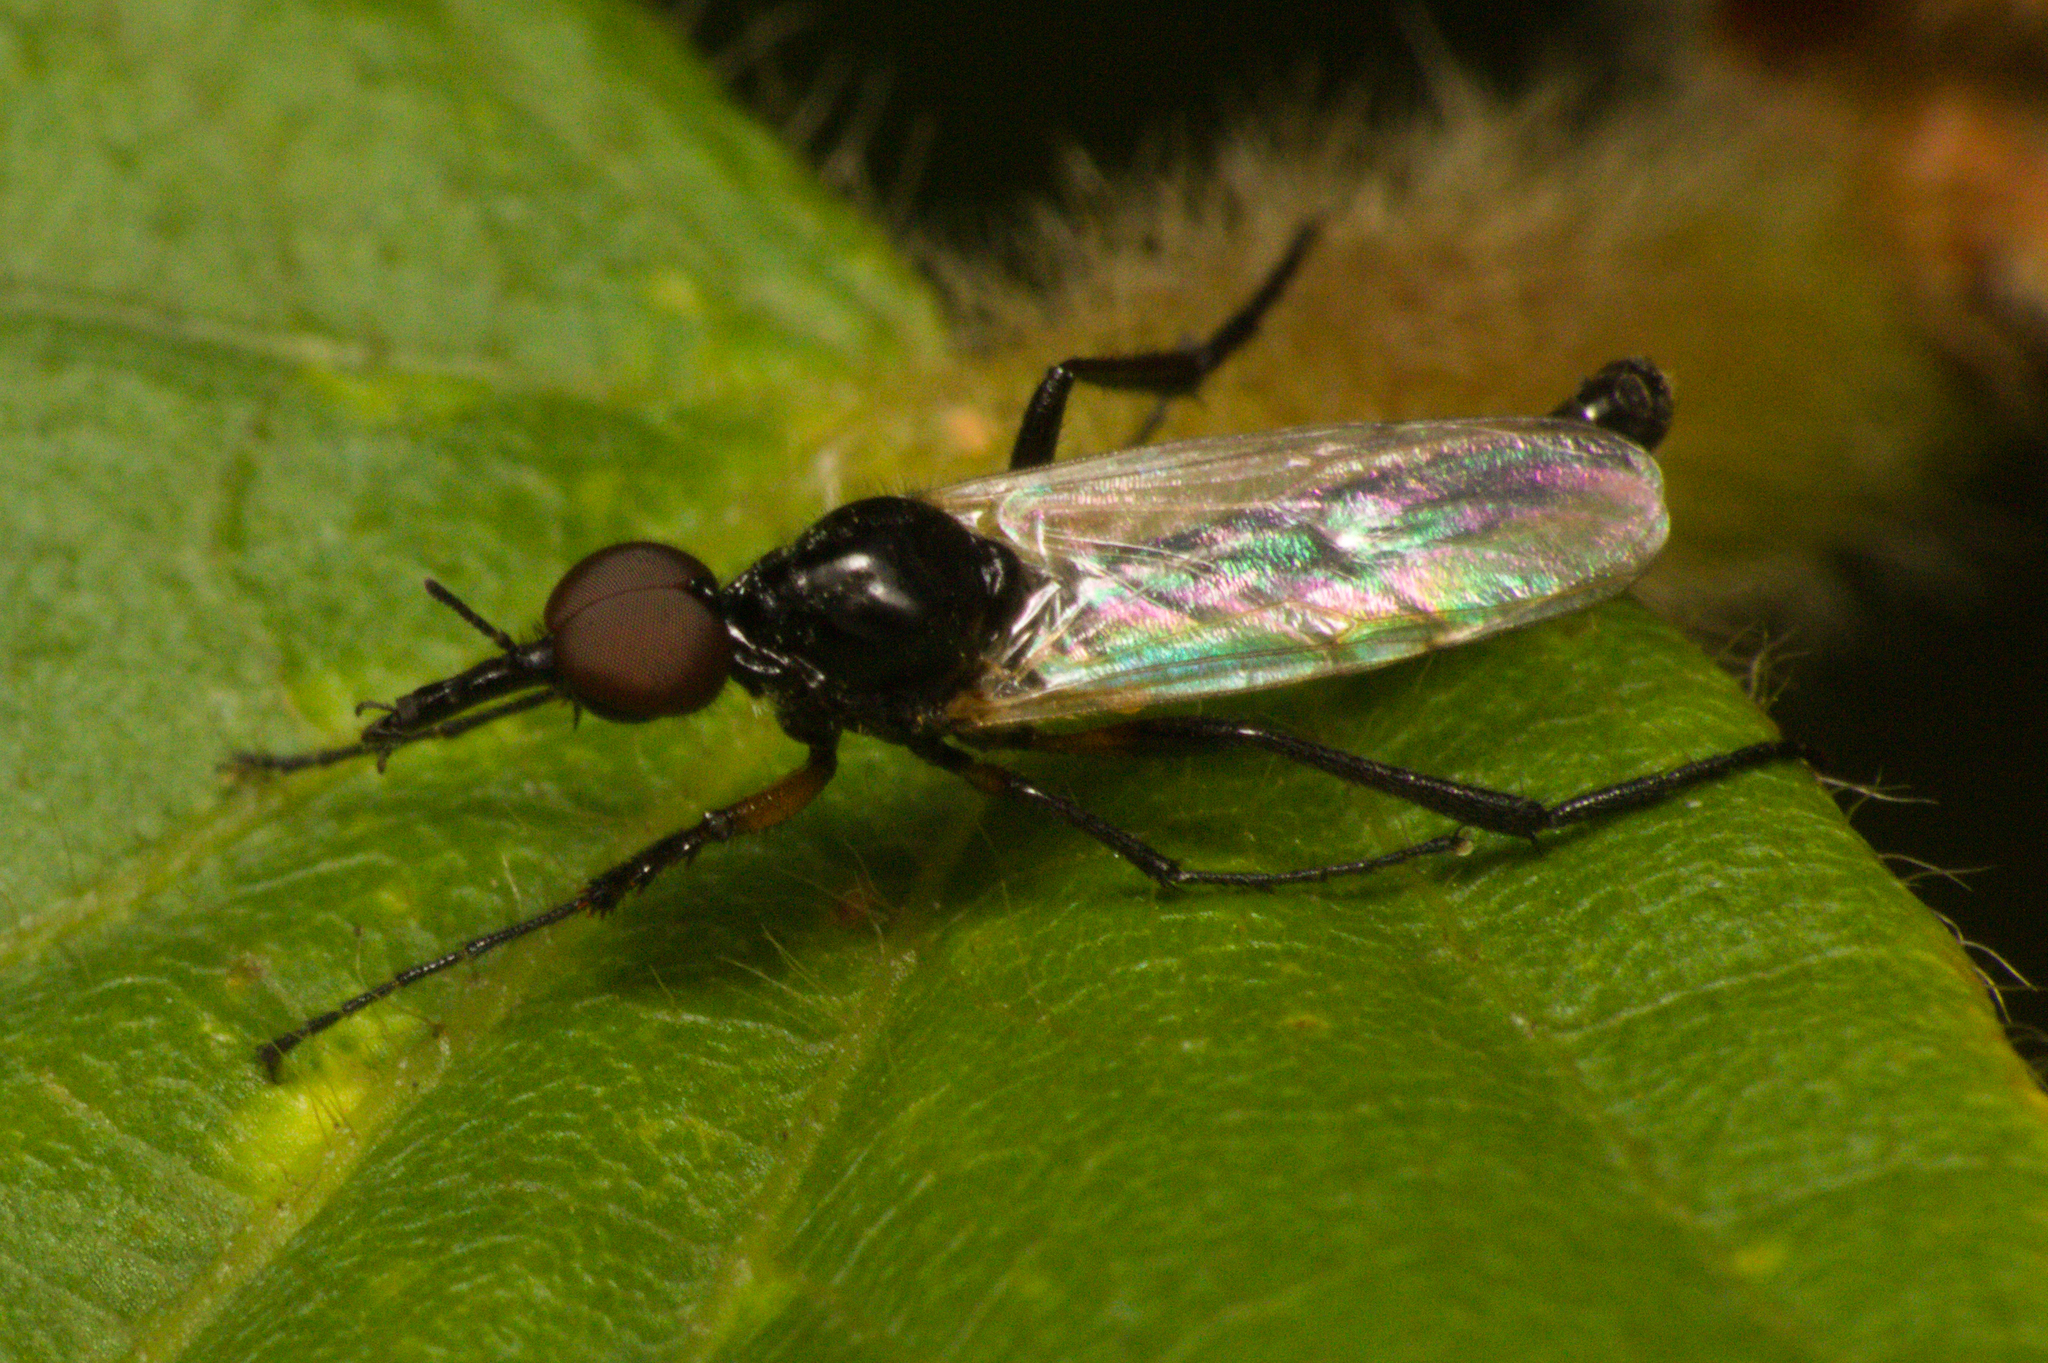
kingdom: Animalia
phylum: Arthropoda
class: Insecta
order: Diptera
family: Bibionidae
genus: Dilophus
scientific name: Dilophus bicoloripes
